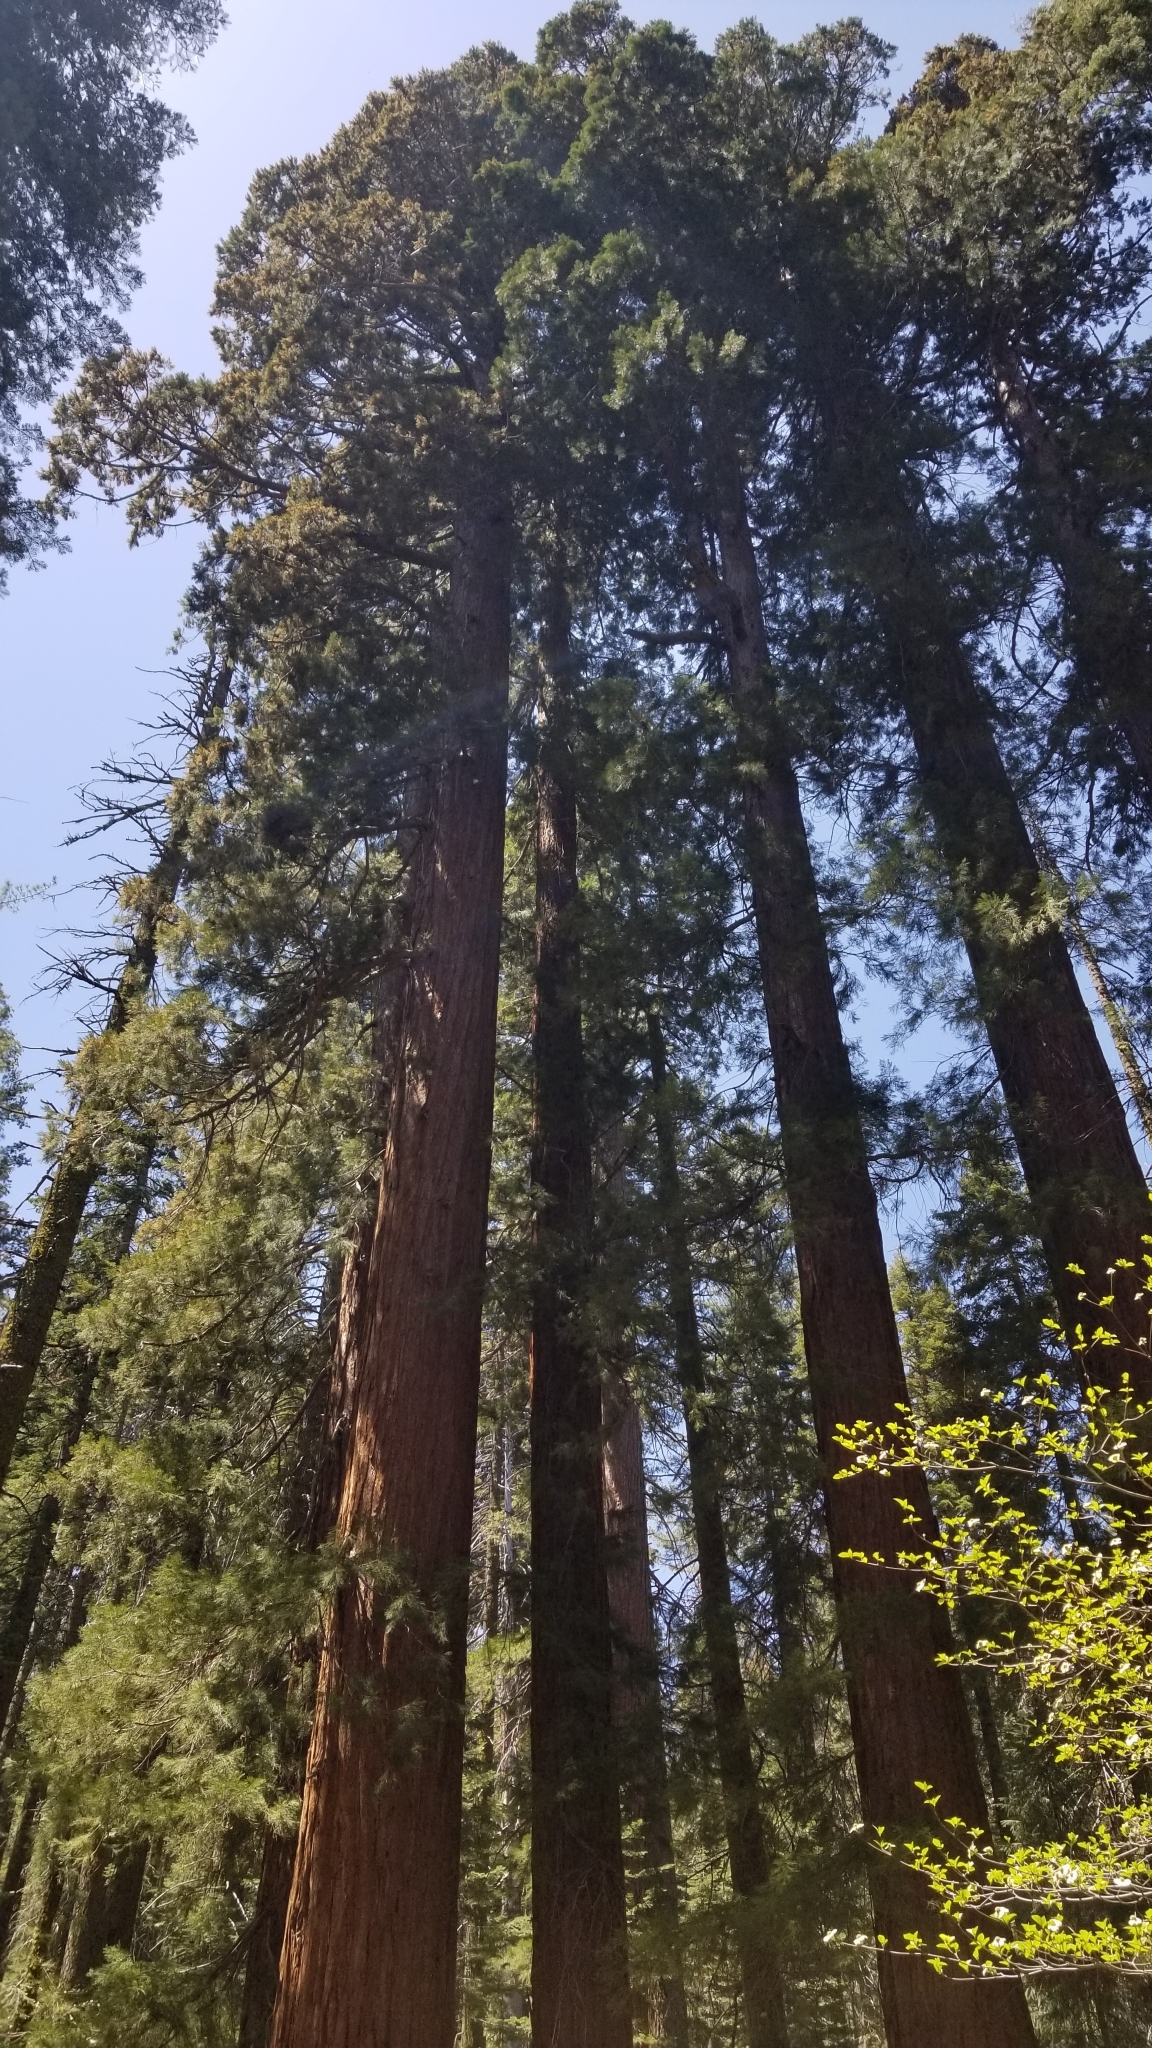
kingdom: Plantae
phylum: Tracheophyta
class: Pinopsida
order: Pinales
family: Cupressaceae
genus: Sequoiadendron
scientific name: Sequoiadendron giganteum
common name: Wellingtonia
